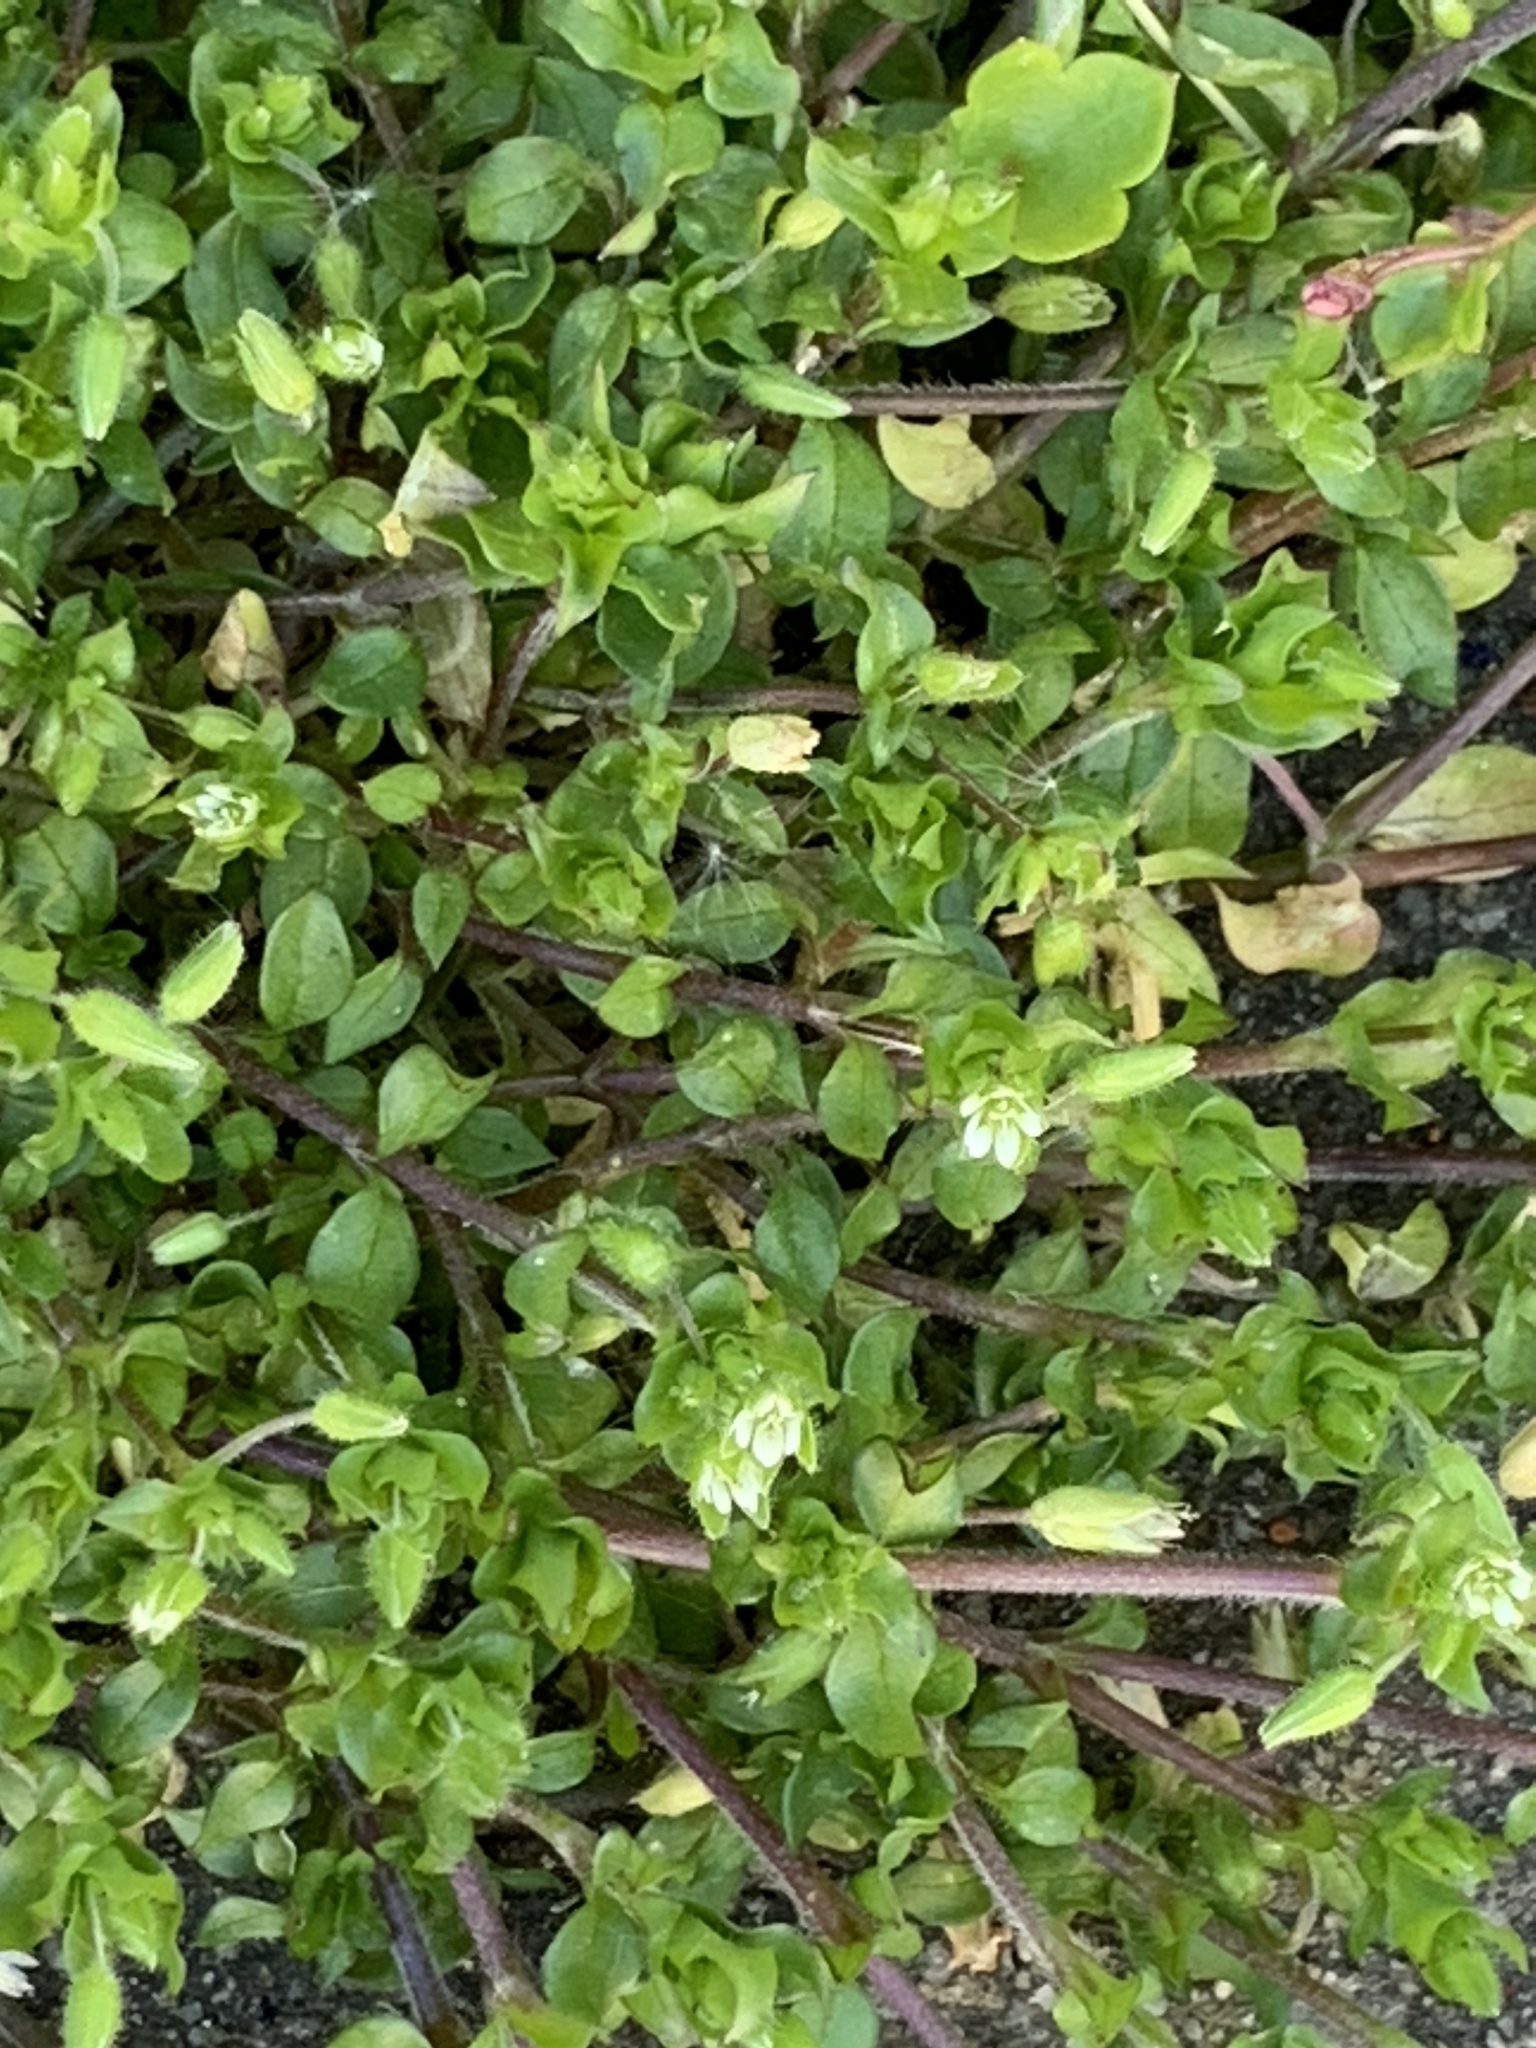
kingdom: Plantae
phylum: Tracheophyta
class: Magnoliopsida
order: Caryophyllales
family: Caryophyllaceae
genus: Stellaria
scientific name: Stellaria media
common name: Common chickweed
